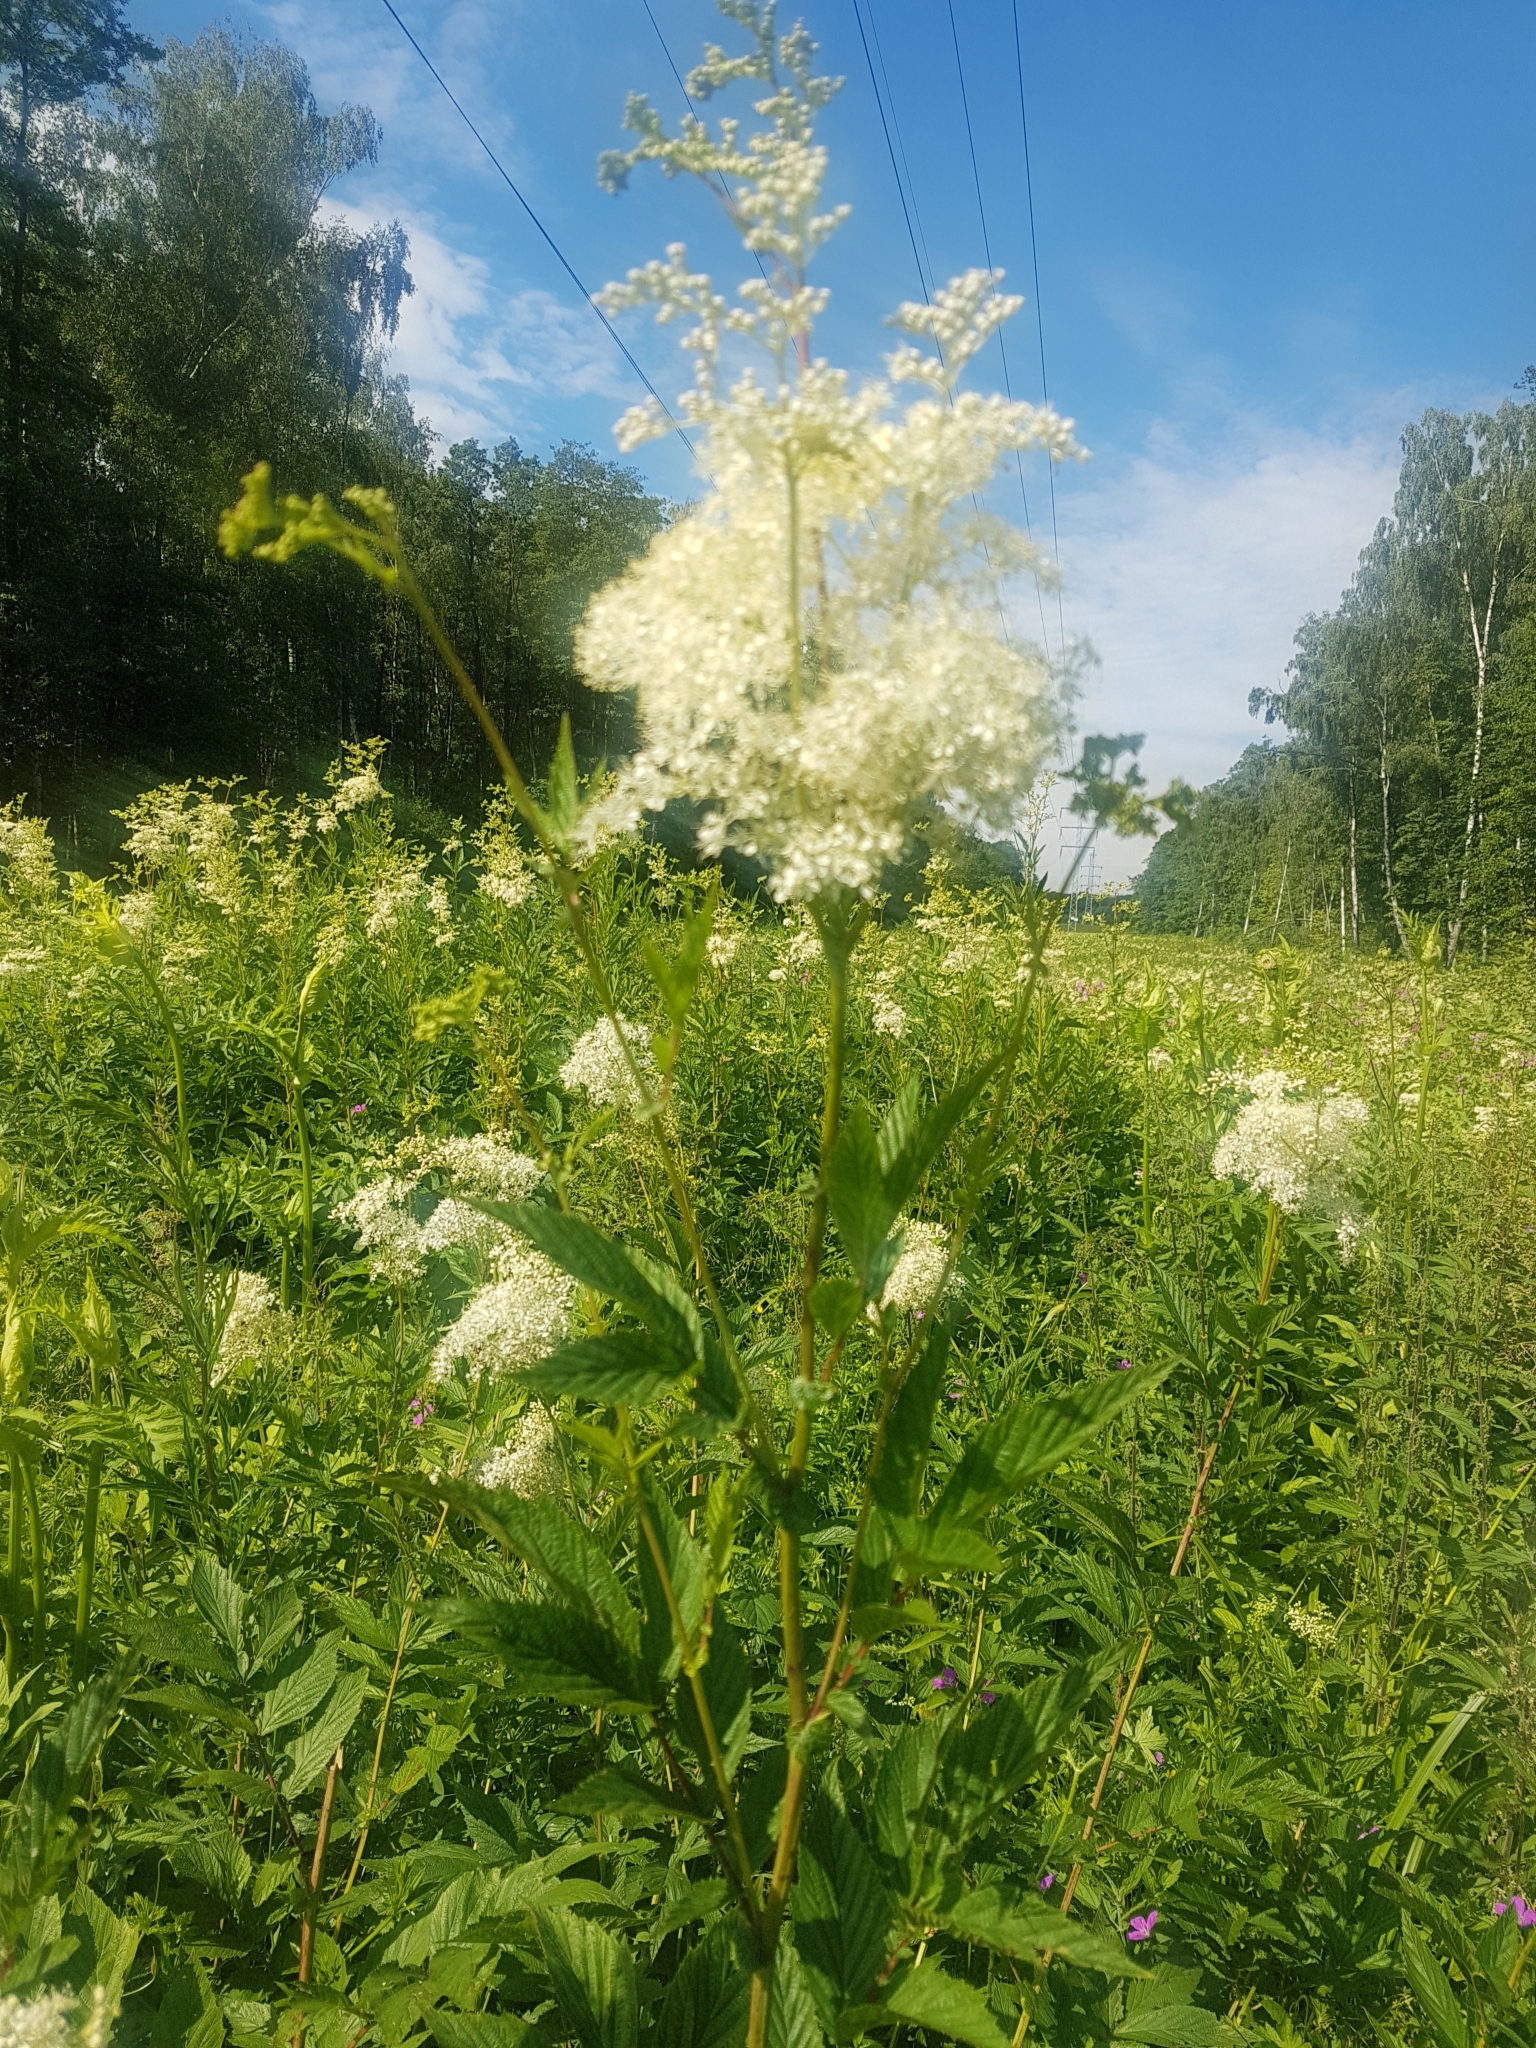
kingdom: Plantae
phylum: Tracheophyta
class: Magnoliopsida
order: Rosales
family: Rosaceae
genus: Filipendula
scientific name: Filipendula ulmaria
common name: Meadowsweet
